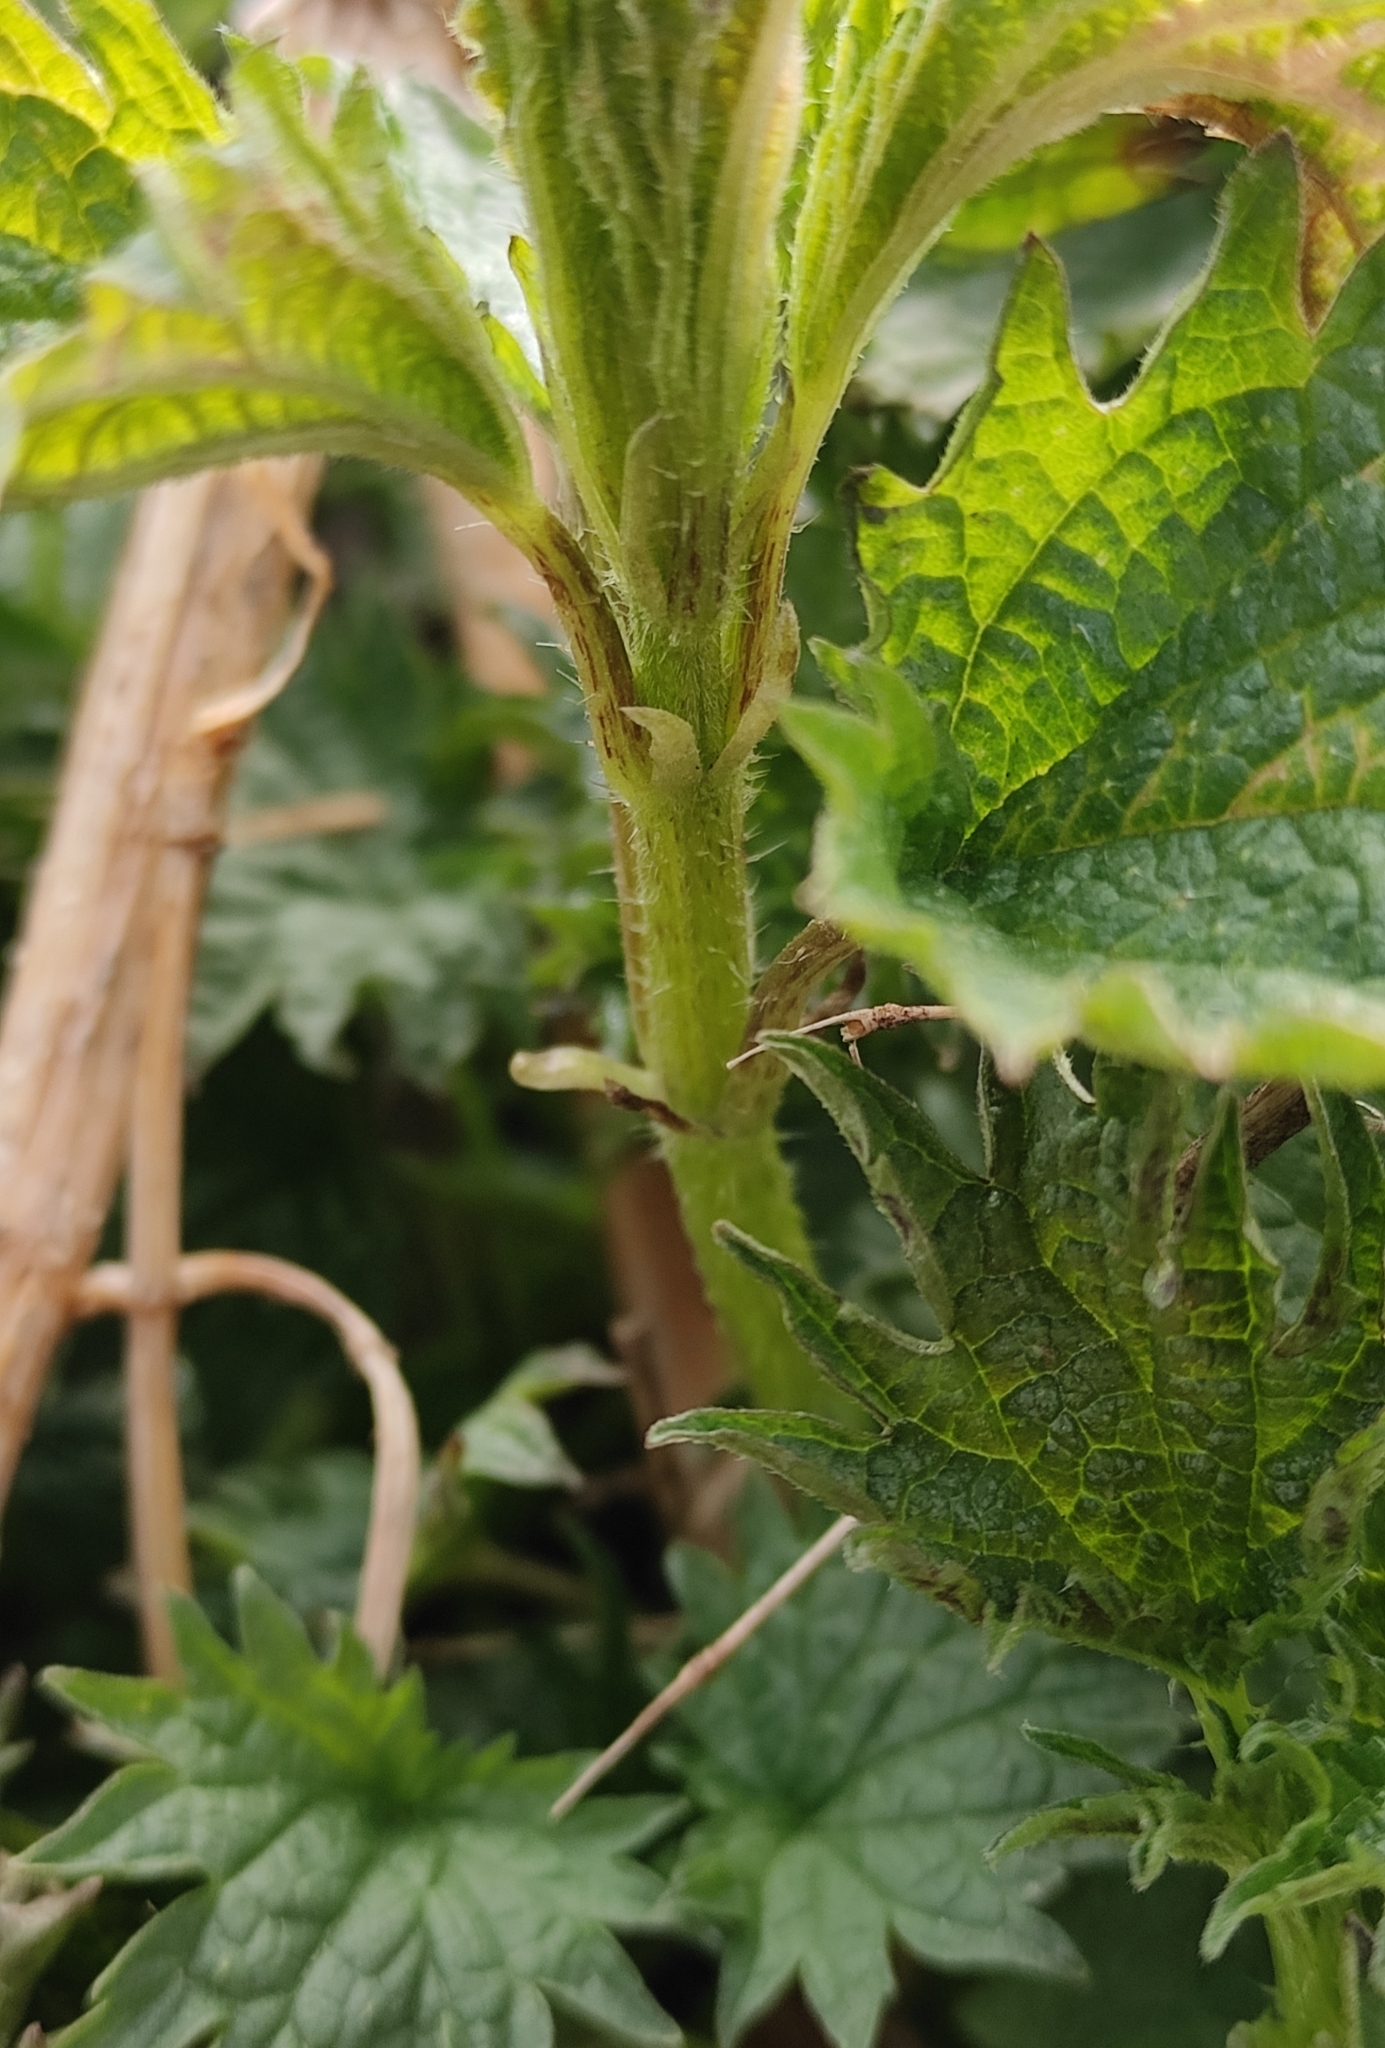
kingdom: Plantae
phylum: Tracheophyta
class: Magnoliopsida
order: Rosales
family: Urticaceae
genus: Urtica
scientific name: Urtica dioica
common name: Common nettle
